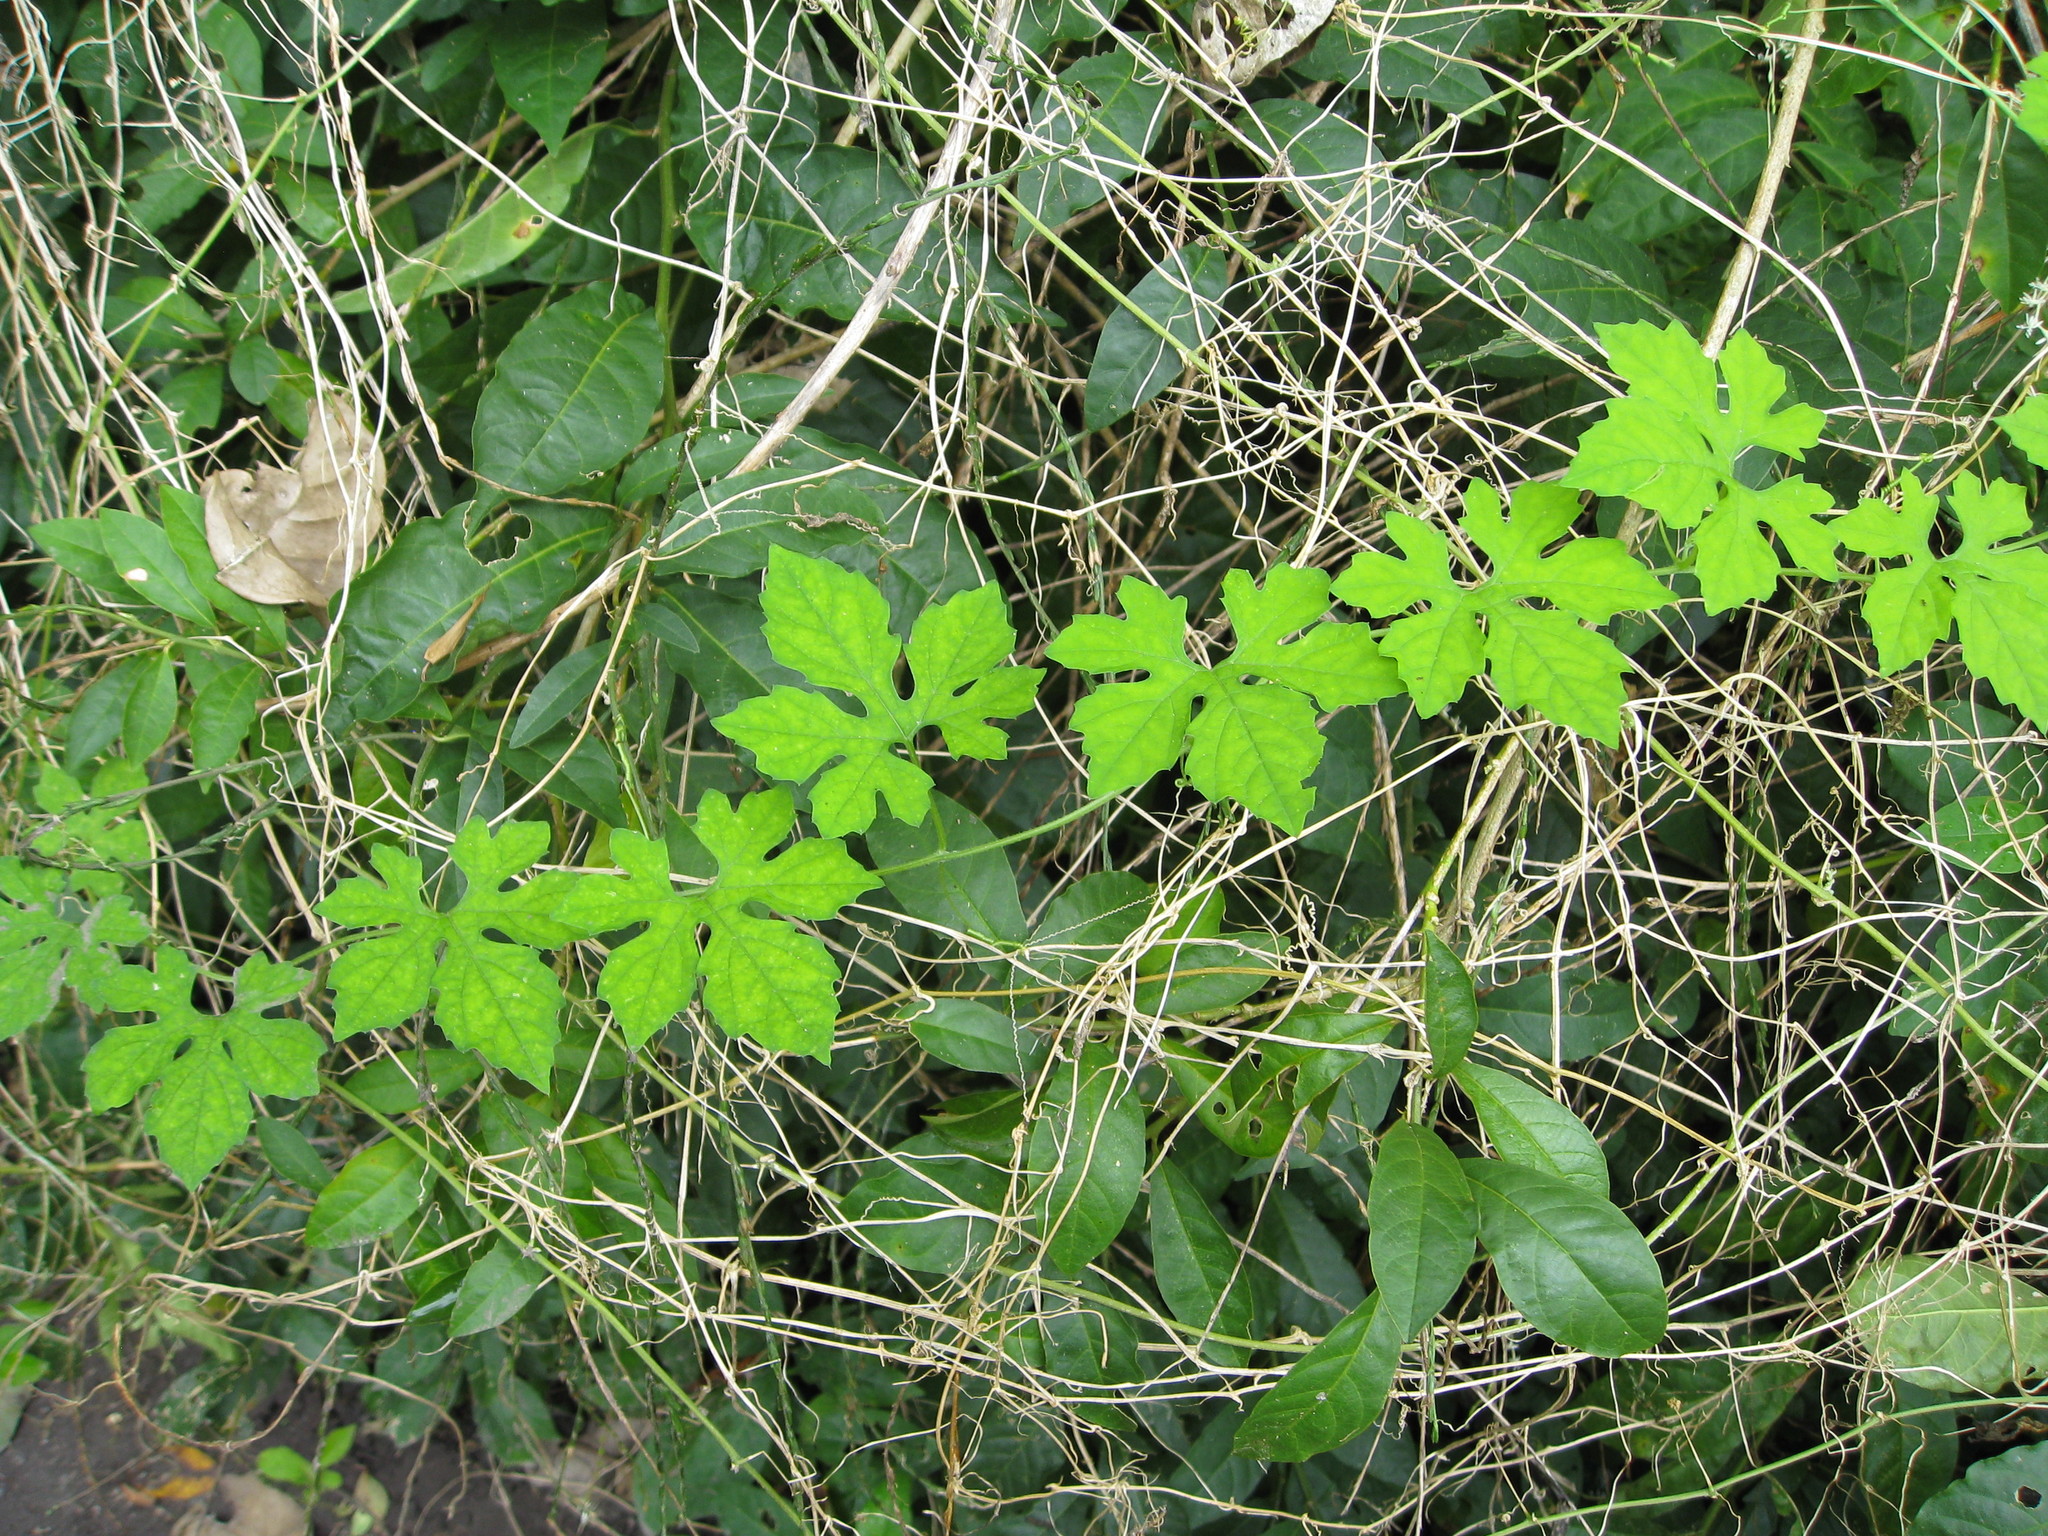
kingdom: Plantae
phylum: Tracheophyta
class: Magnoliopsida
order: Cucurbitales
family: Cucurbitaceae
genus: Momordica
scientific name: Momordica charantia
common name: Balsampear
